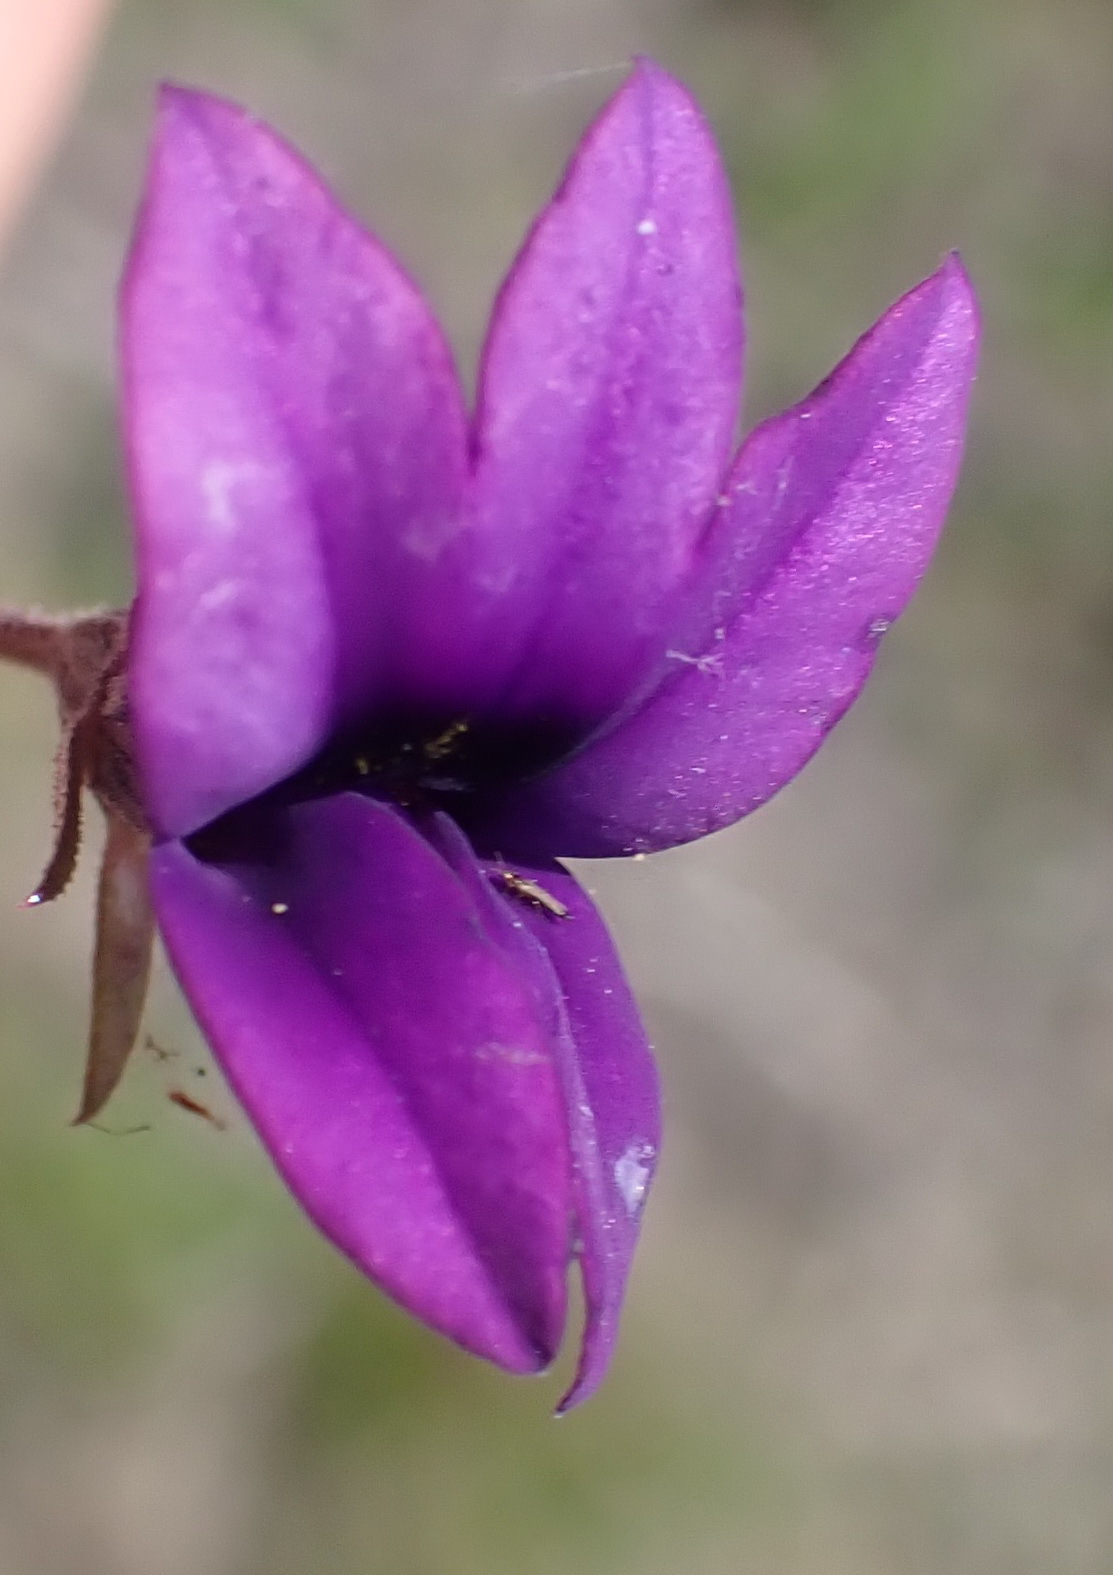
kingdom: Plantae
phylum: Tracheophyta
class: Magnoliopsida
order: Asterales
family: Campanulaceae
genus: Monopsis
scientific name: Monopsis unidentata
